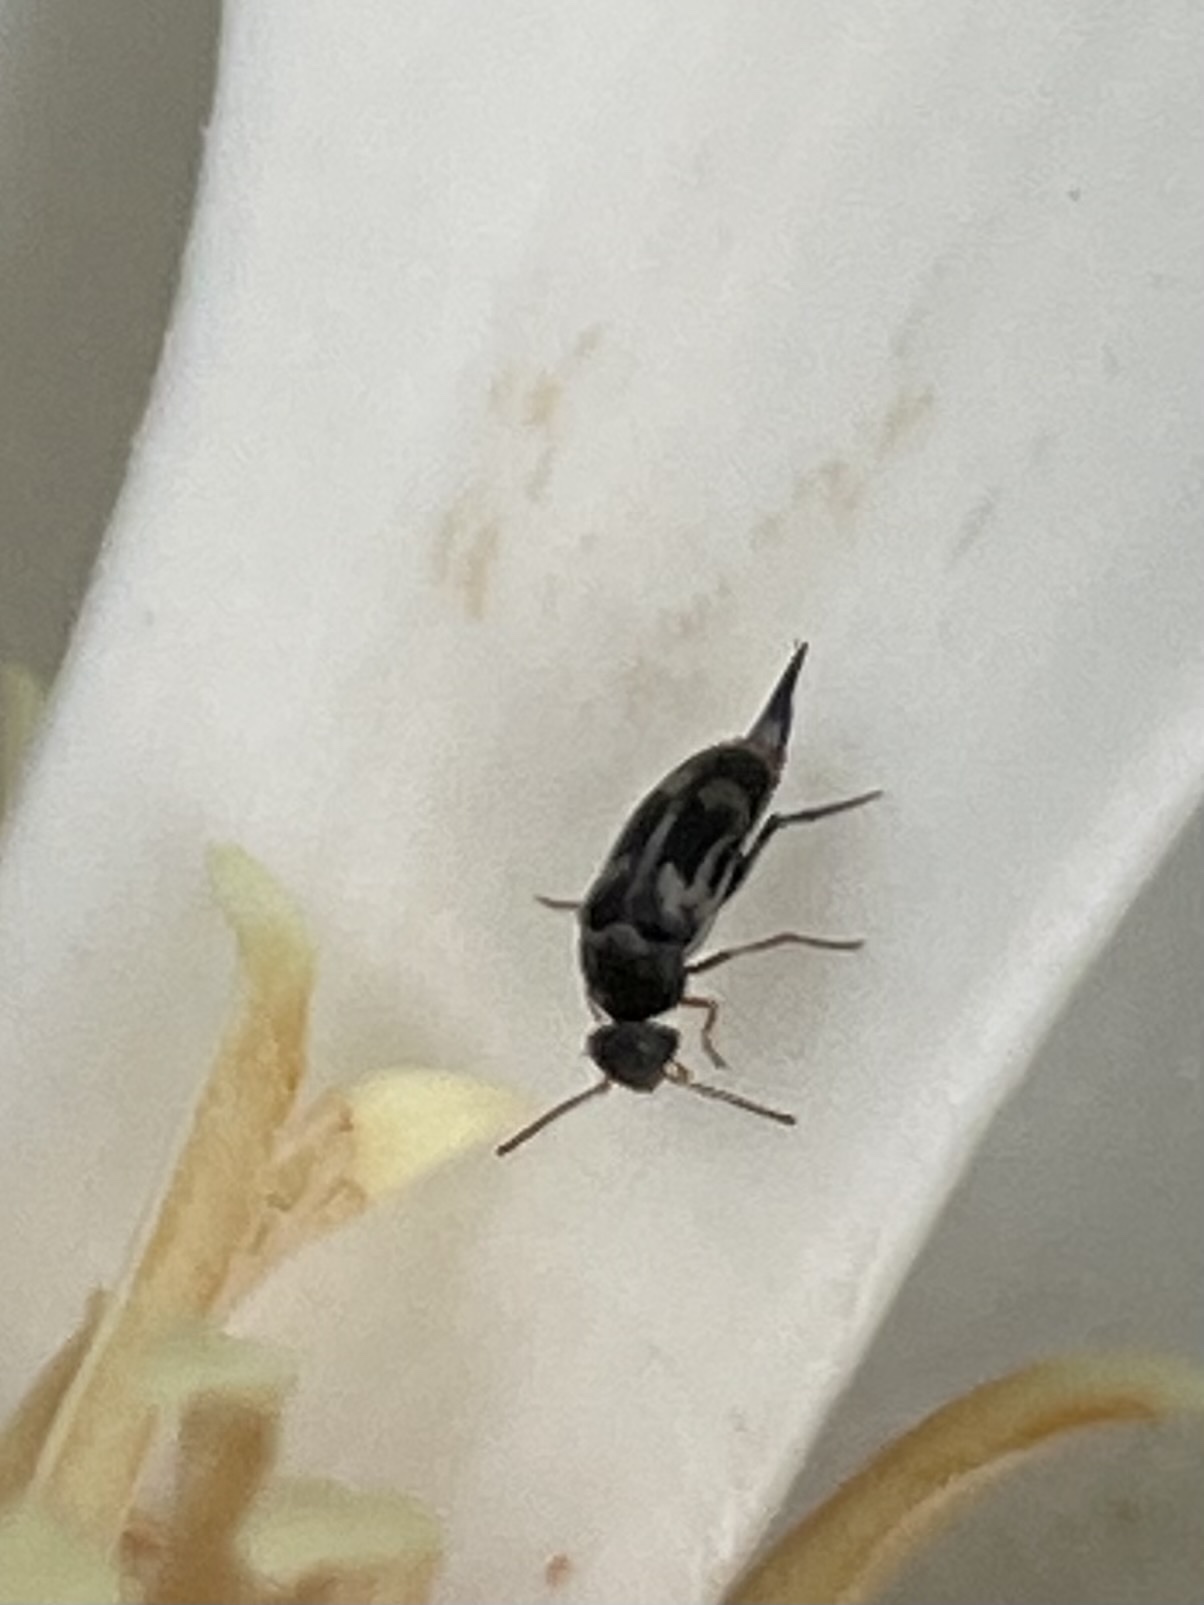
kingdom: Animalia
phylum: Arthropoda
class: Insecta
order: Coleoptera
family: Mordellidae
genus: Falsomordellistena
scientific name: Falsomordellistena hebraica
